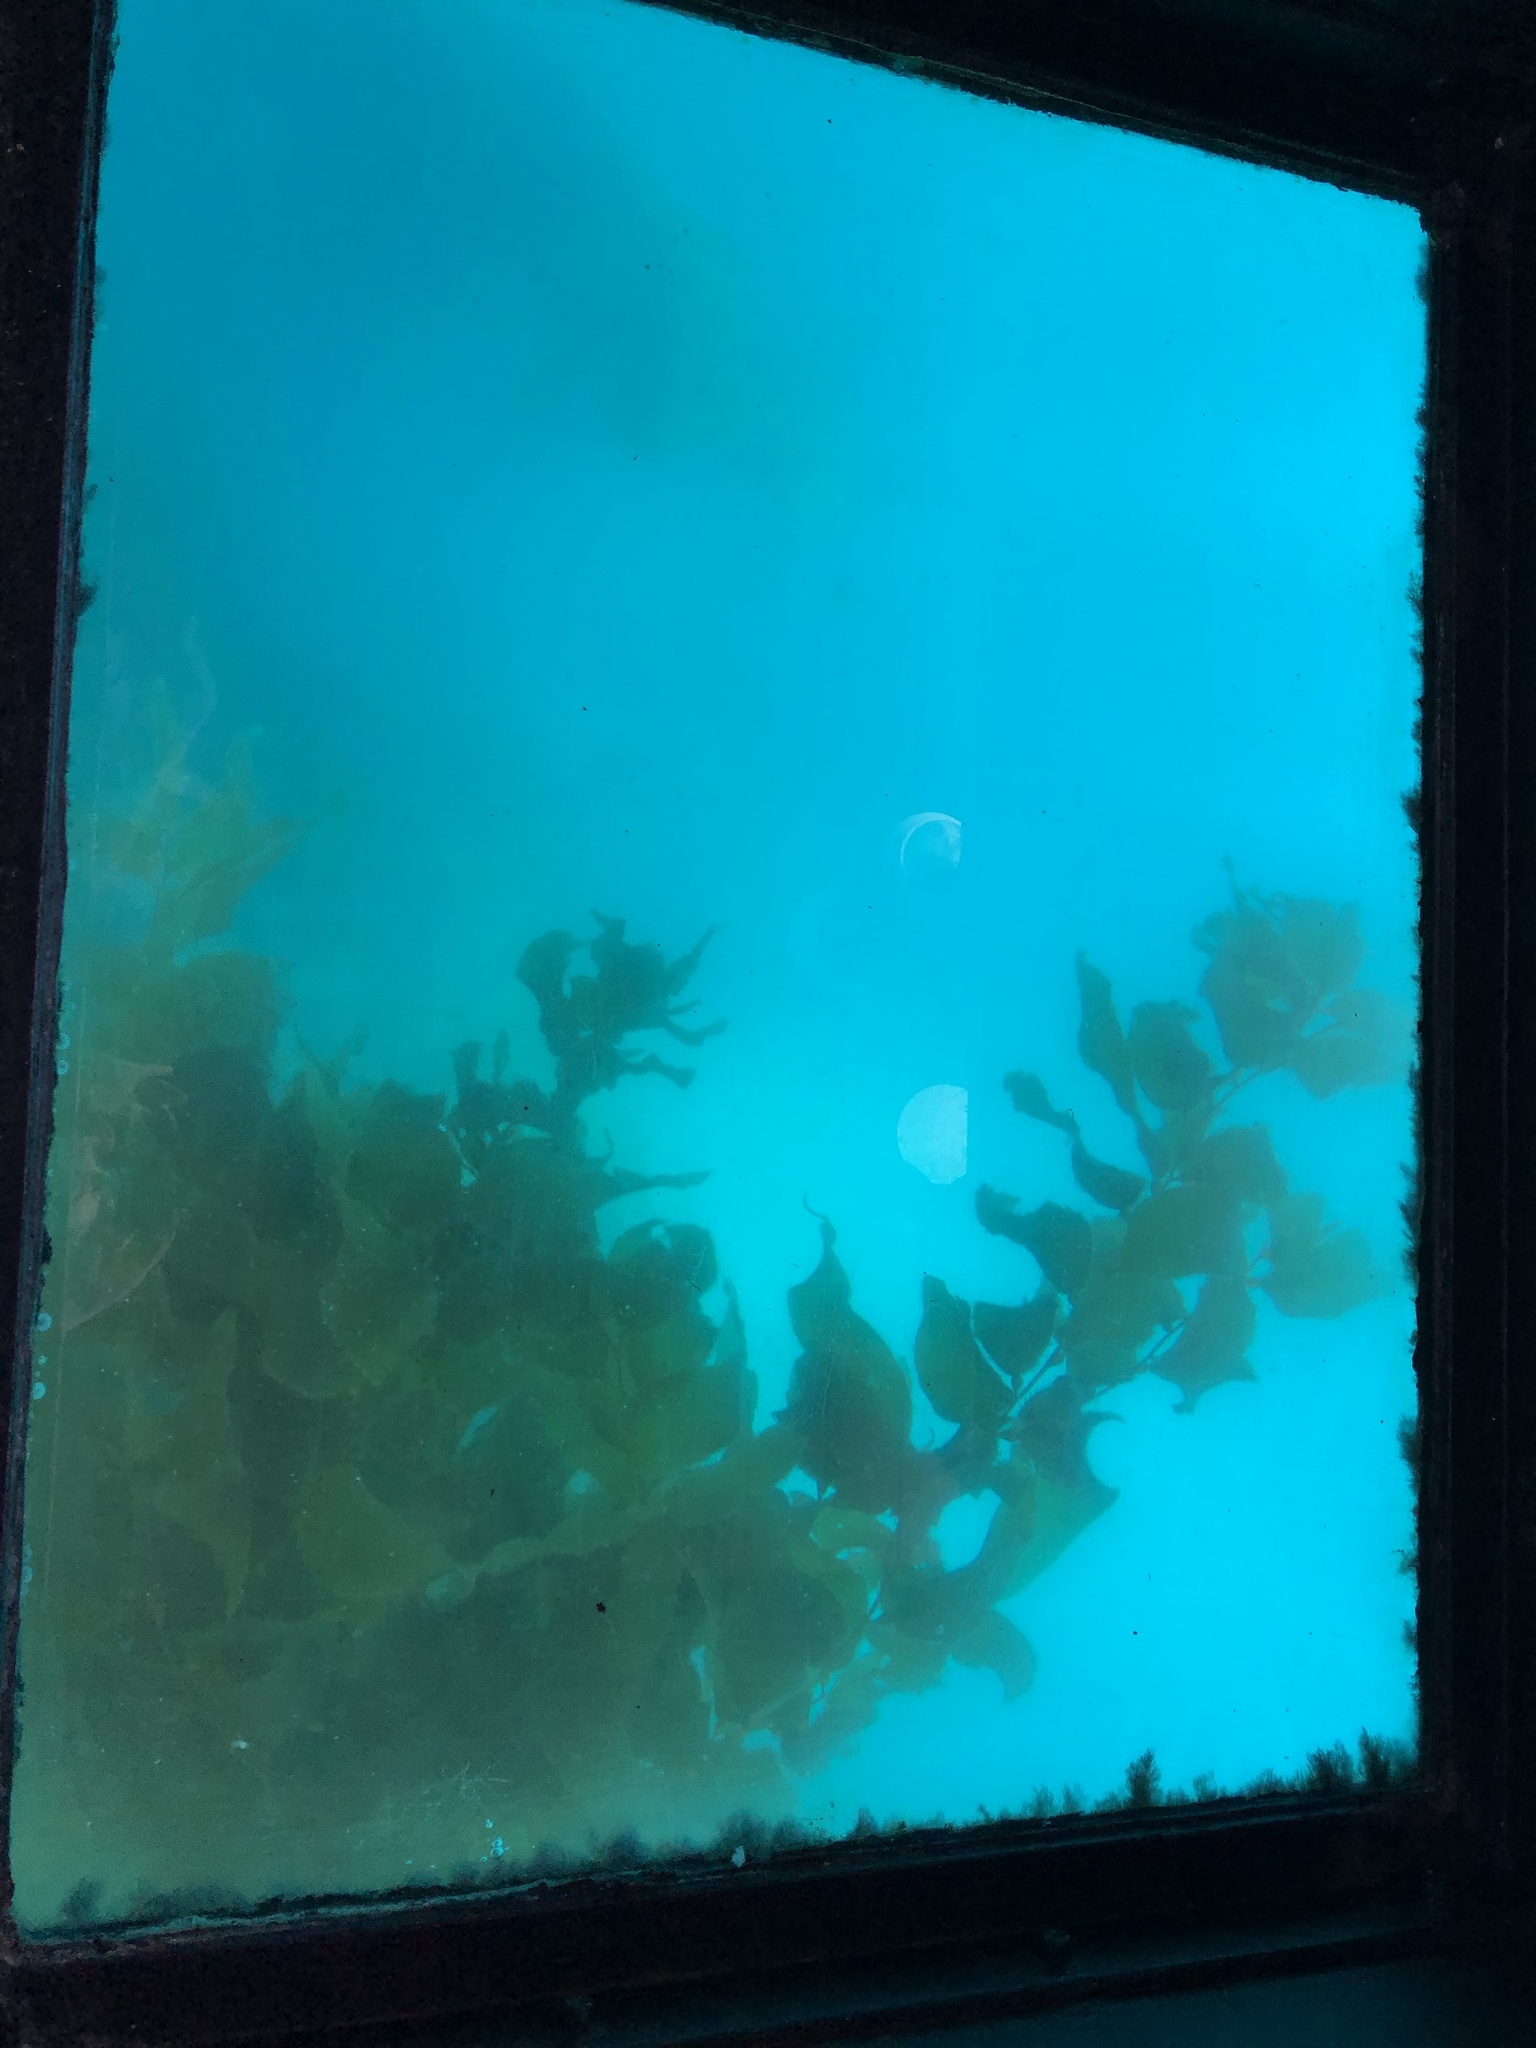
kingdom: Chromista
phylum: Ochrophyta
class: Phaeophyceae
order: Laminariales
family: Laminariaceae
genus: Macrocystis
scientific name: Macrocystis pyrifera
